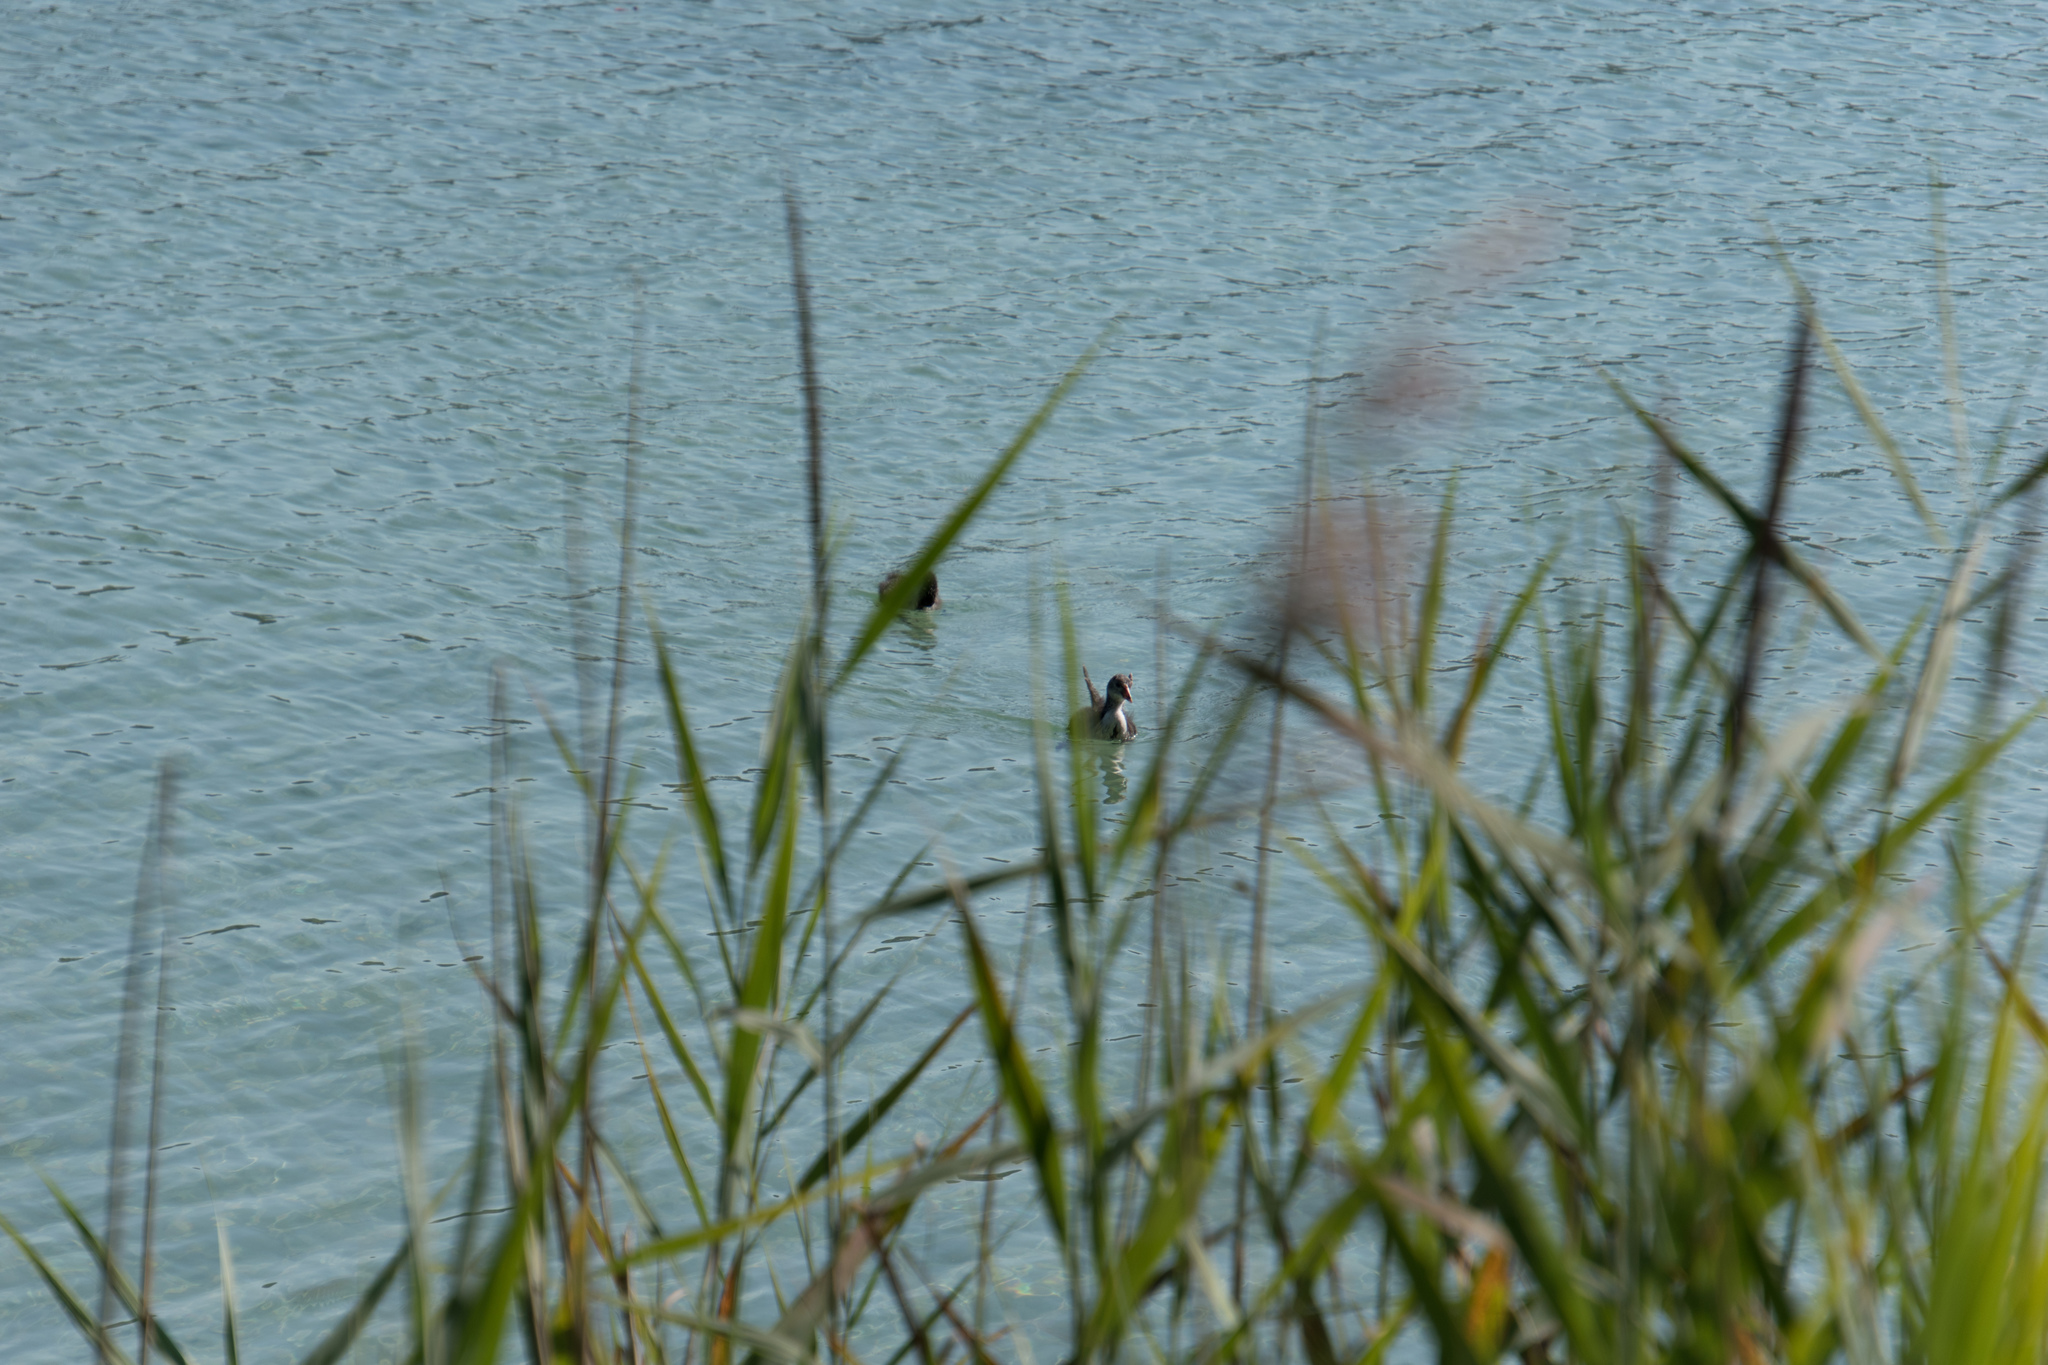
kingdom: Animalia
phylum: Chordata
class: Aves
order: Gruiformes
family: Rallidae
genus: Fulica
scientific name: Fulica atra
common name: Eurasian coot
